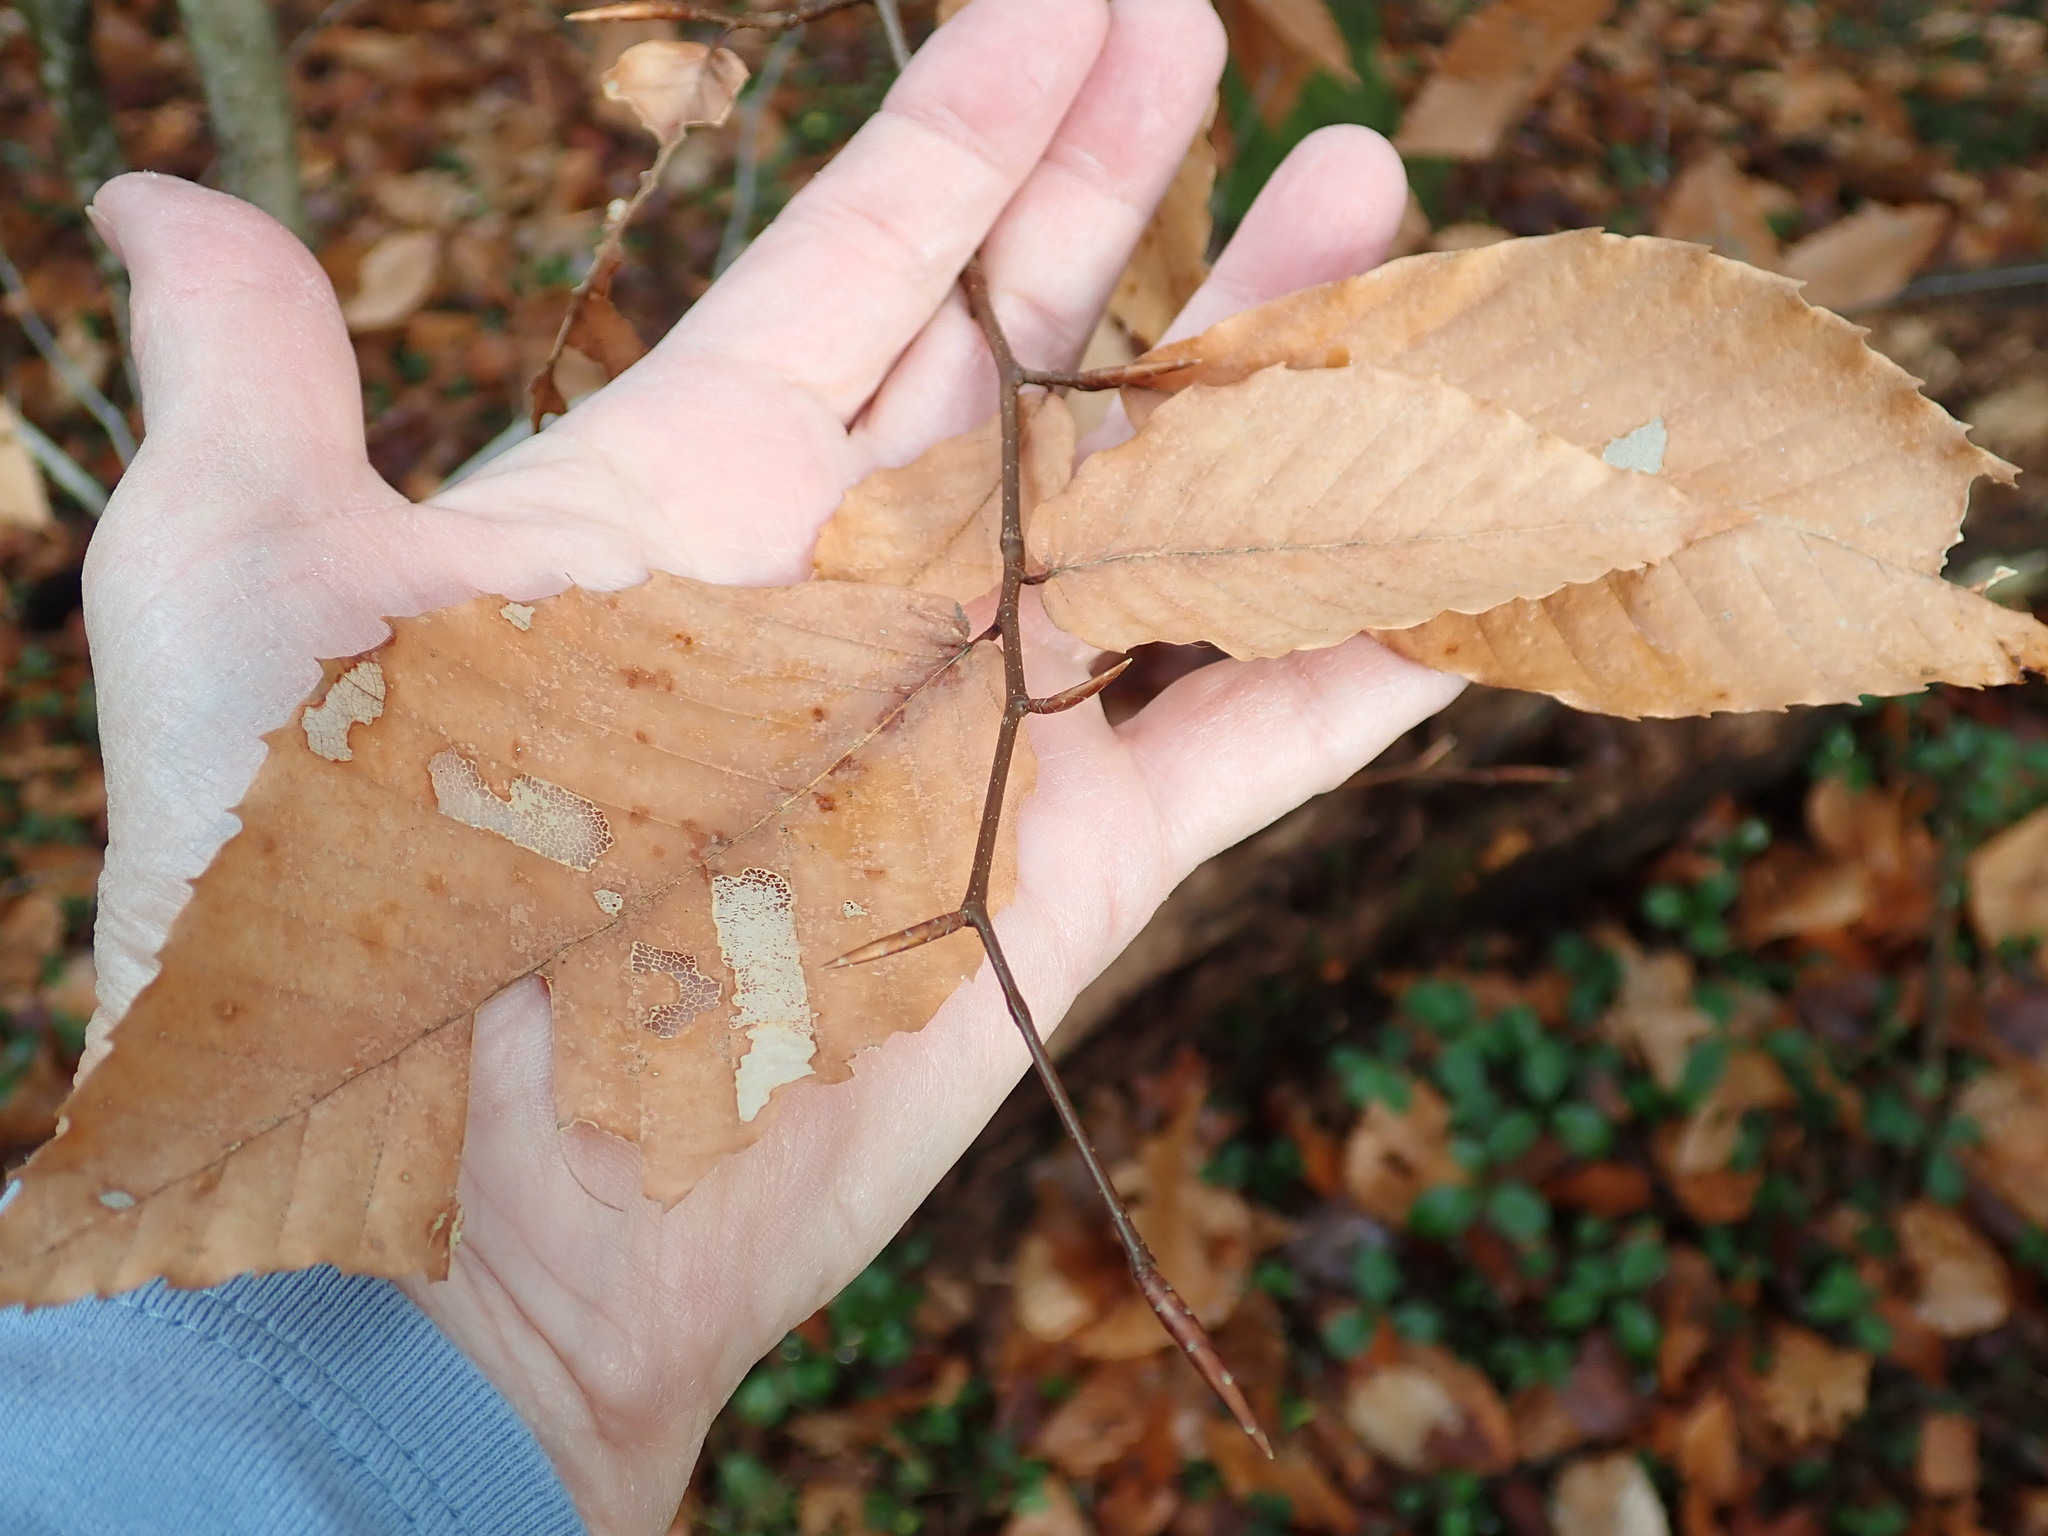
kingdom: Plantae
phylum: Tracheophyta
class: Magnoliopsida
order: Fagales
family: Fagaceae
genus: Fagus
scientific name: Fagus grandifolia
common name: American beech
